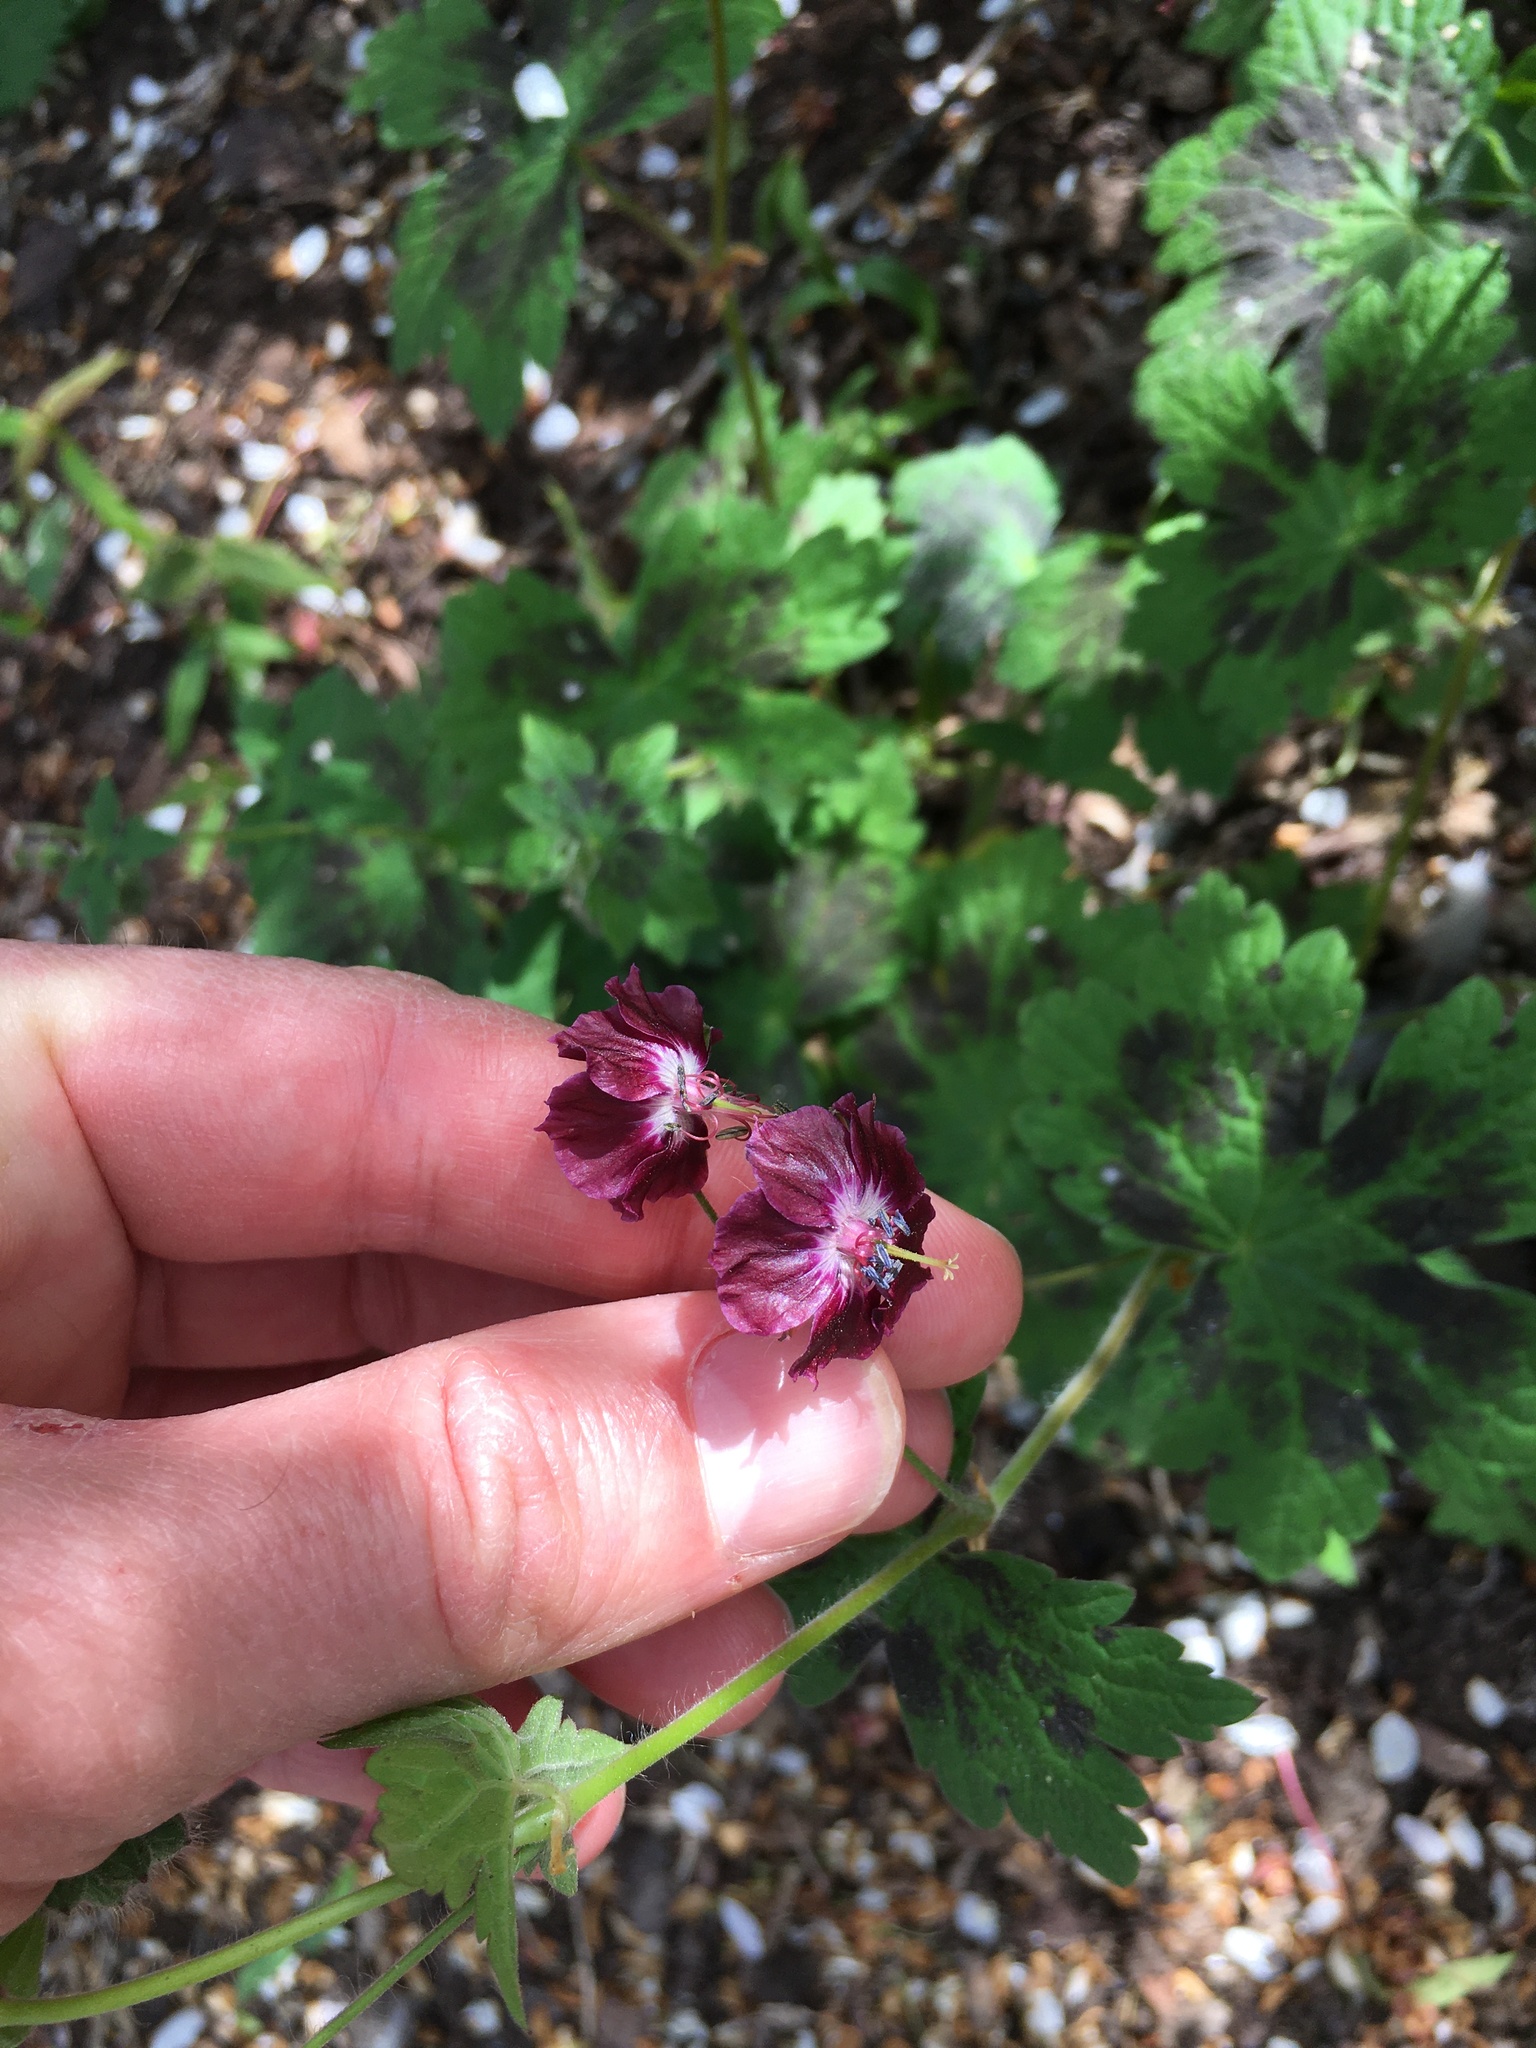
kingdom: Plantae
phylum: Tracheophyta
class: Magnoliopsida
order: Geraniales
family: Geraniaceae
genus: Geranium
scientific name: Geranium phaeum
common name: Dusky crane's-bill
